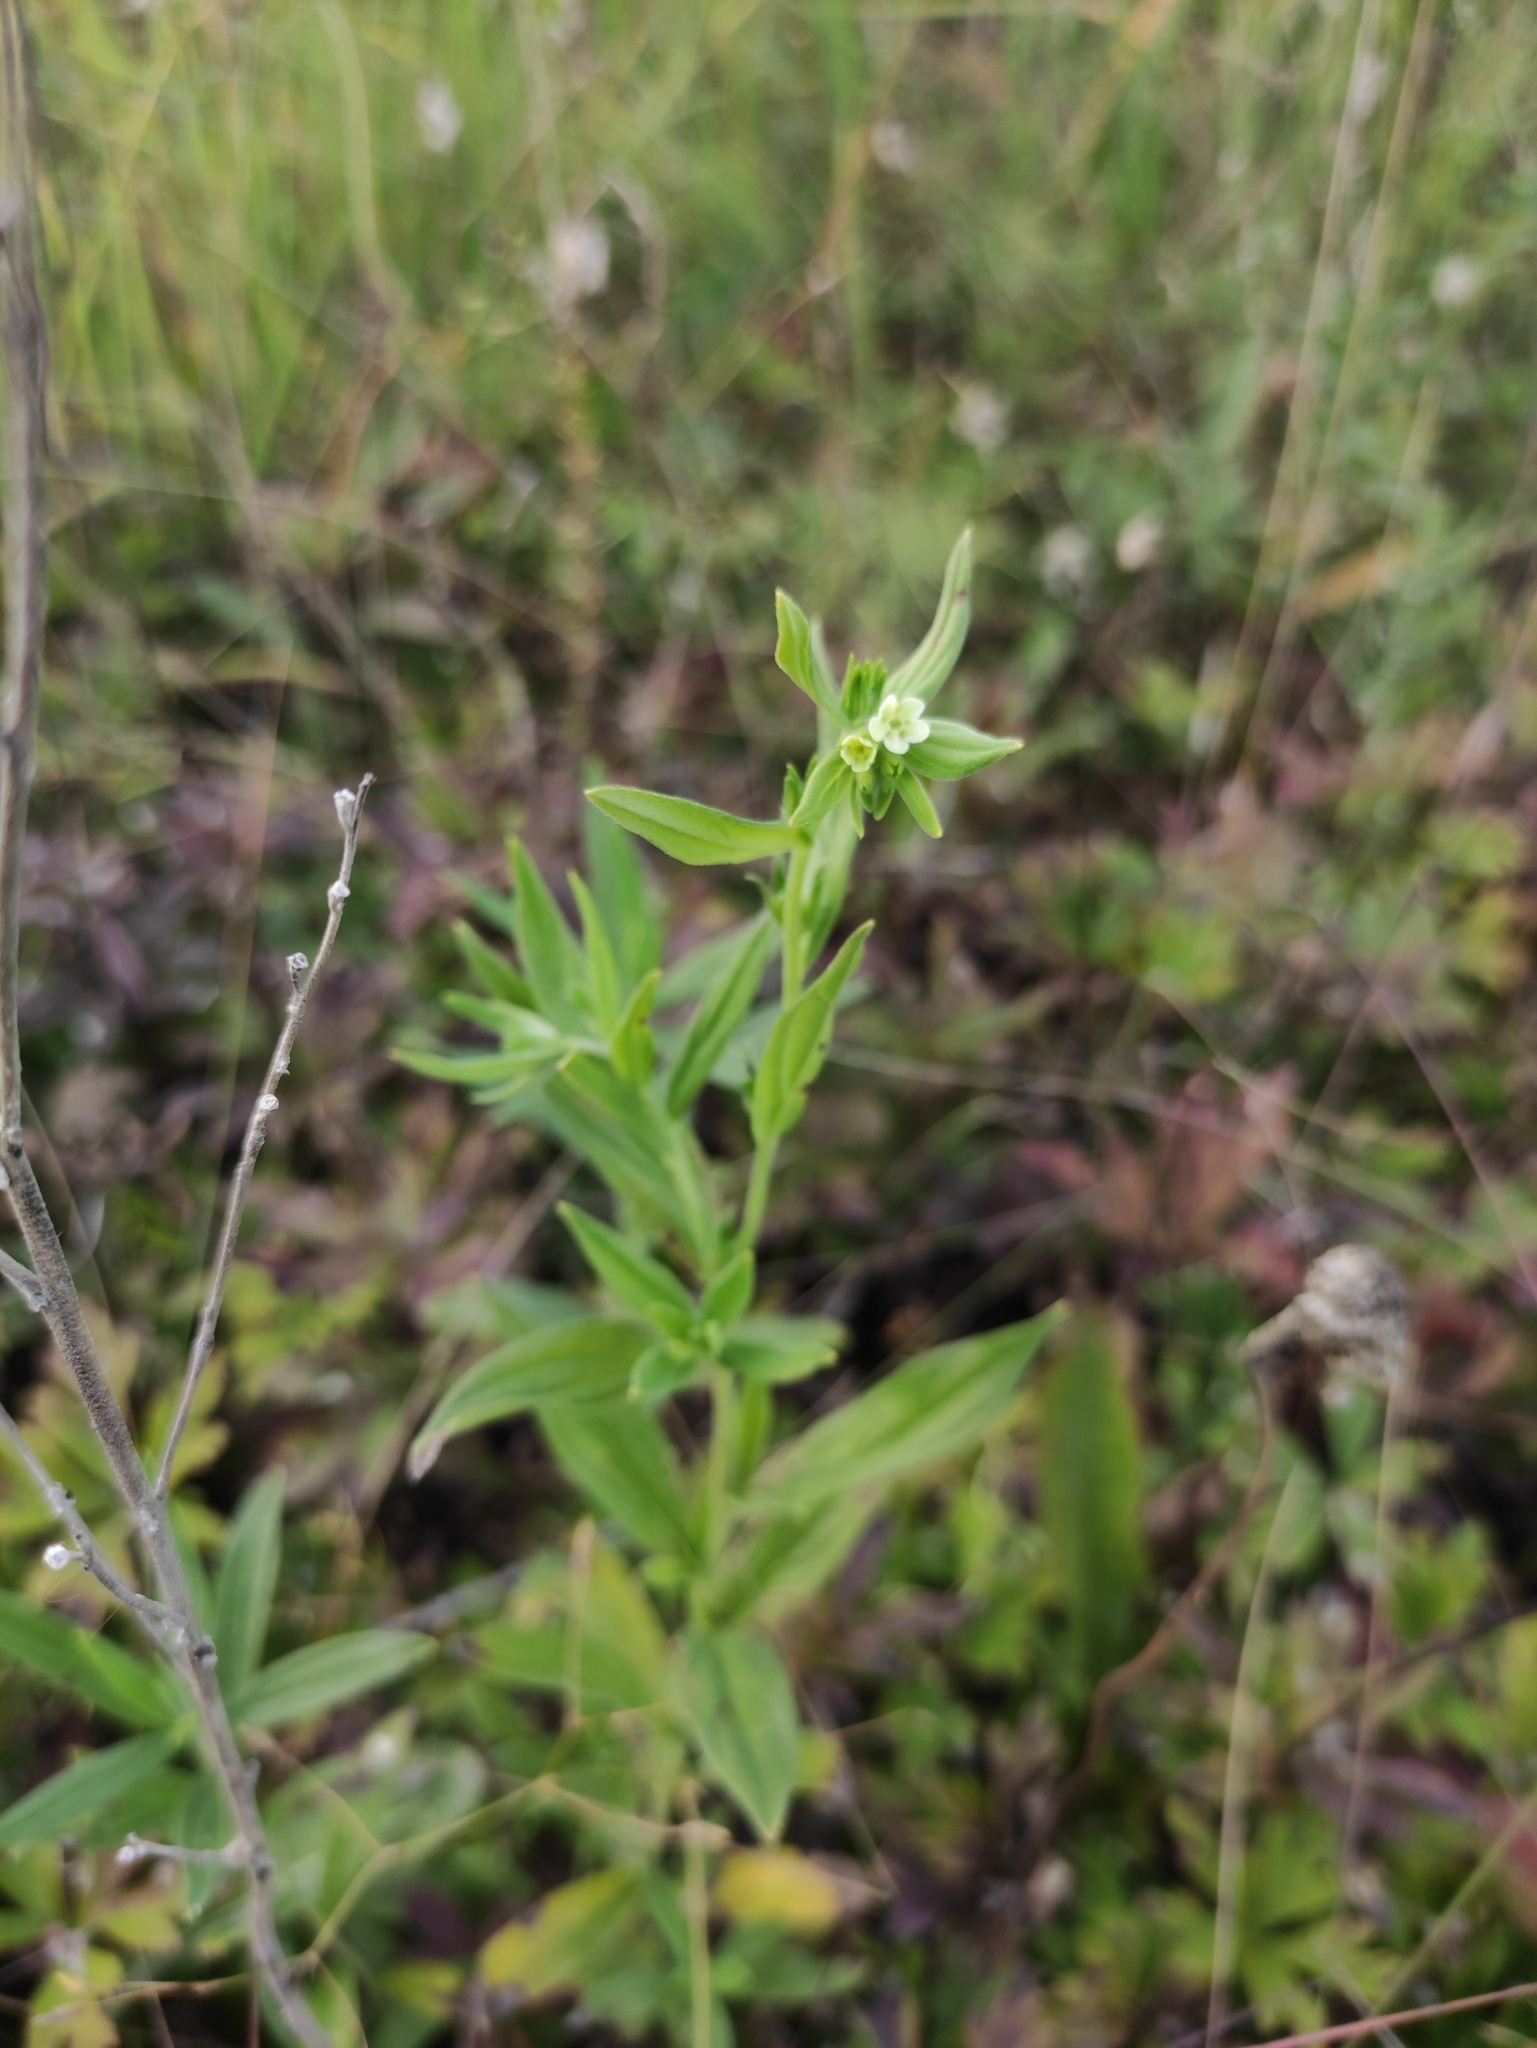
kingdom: Plantae
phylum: Tracheophyta
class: Magnoliopsida
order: Boraginales
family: Boraginaceae
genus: Lithospermum
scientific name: Lithospermum officinale
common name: Common gromwell
